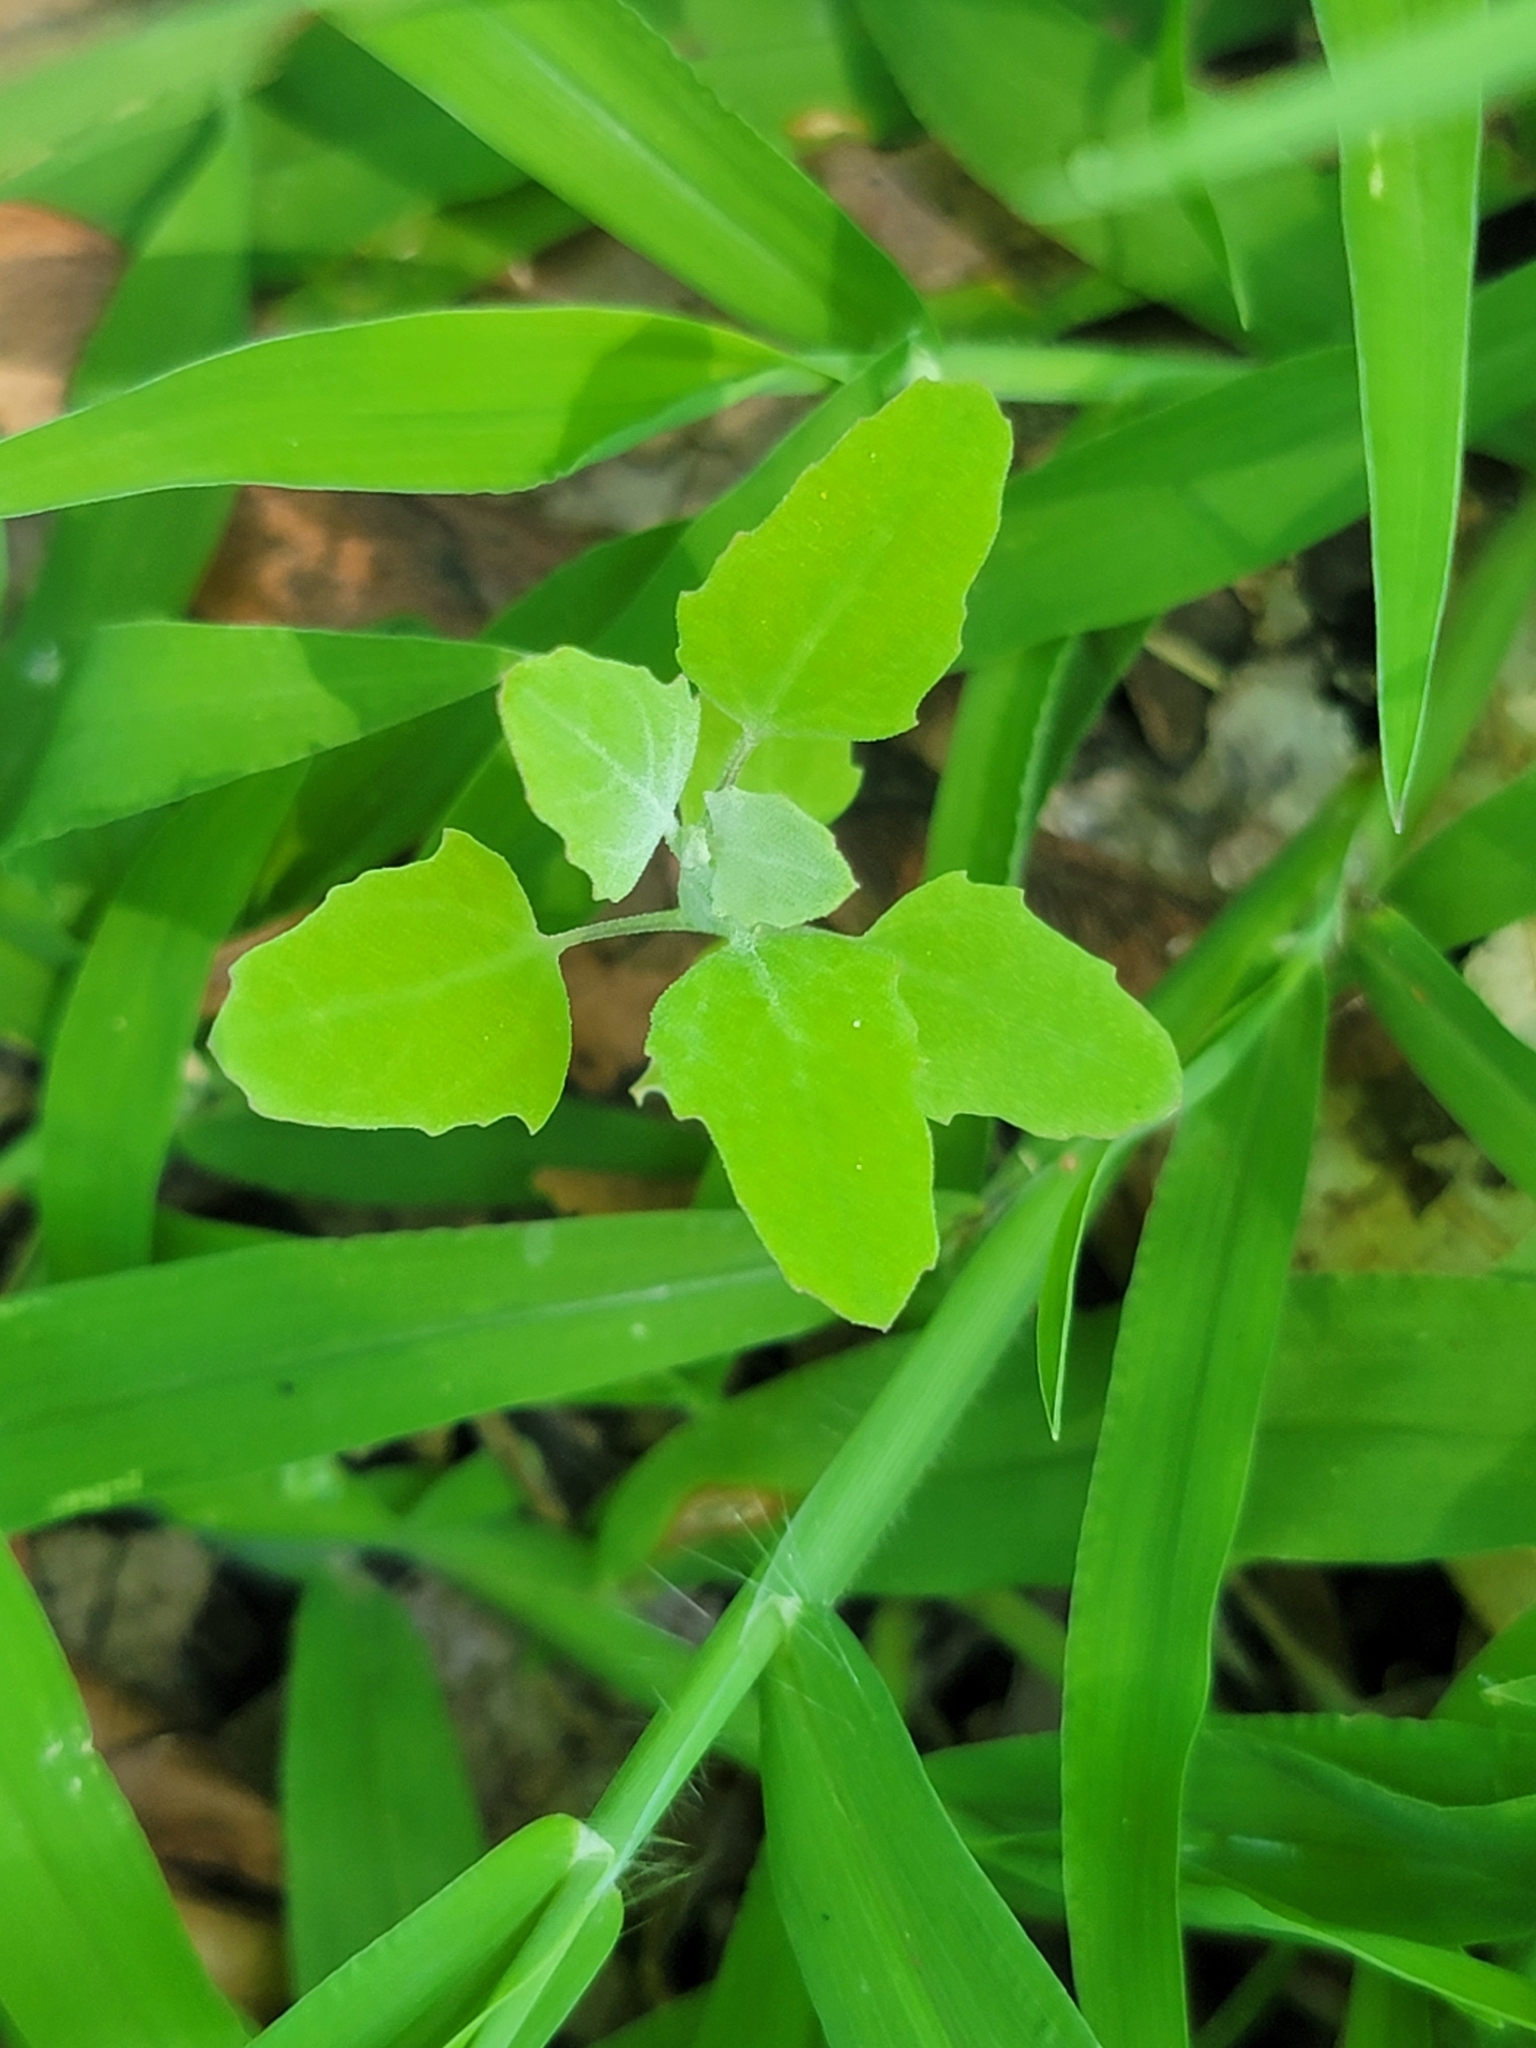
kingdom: Plantae
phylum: Tracheophyta
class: Magnoliopsida
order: Caryophyllales
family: Amaranthaceae
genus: Chenopodium
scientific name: Chenopodium album
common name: Fat-hen
